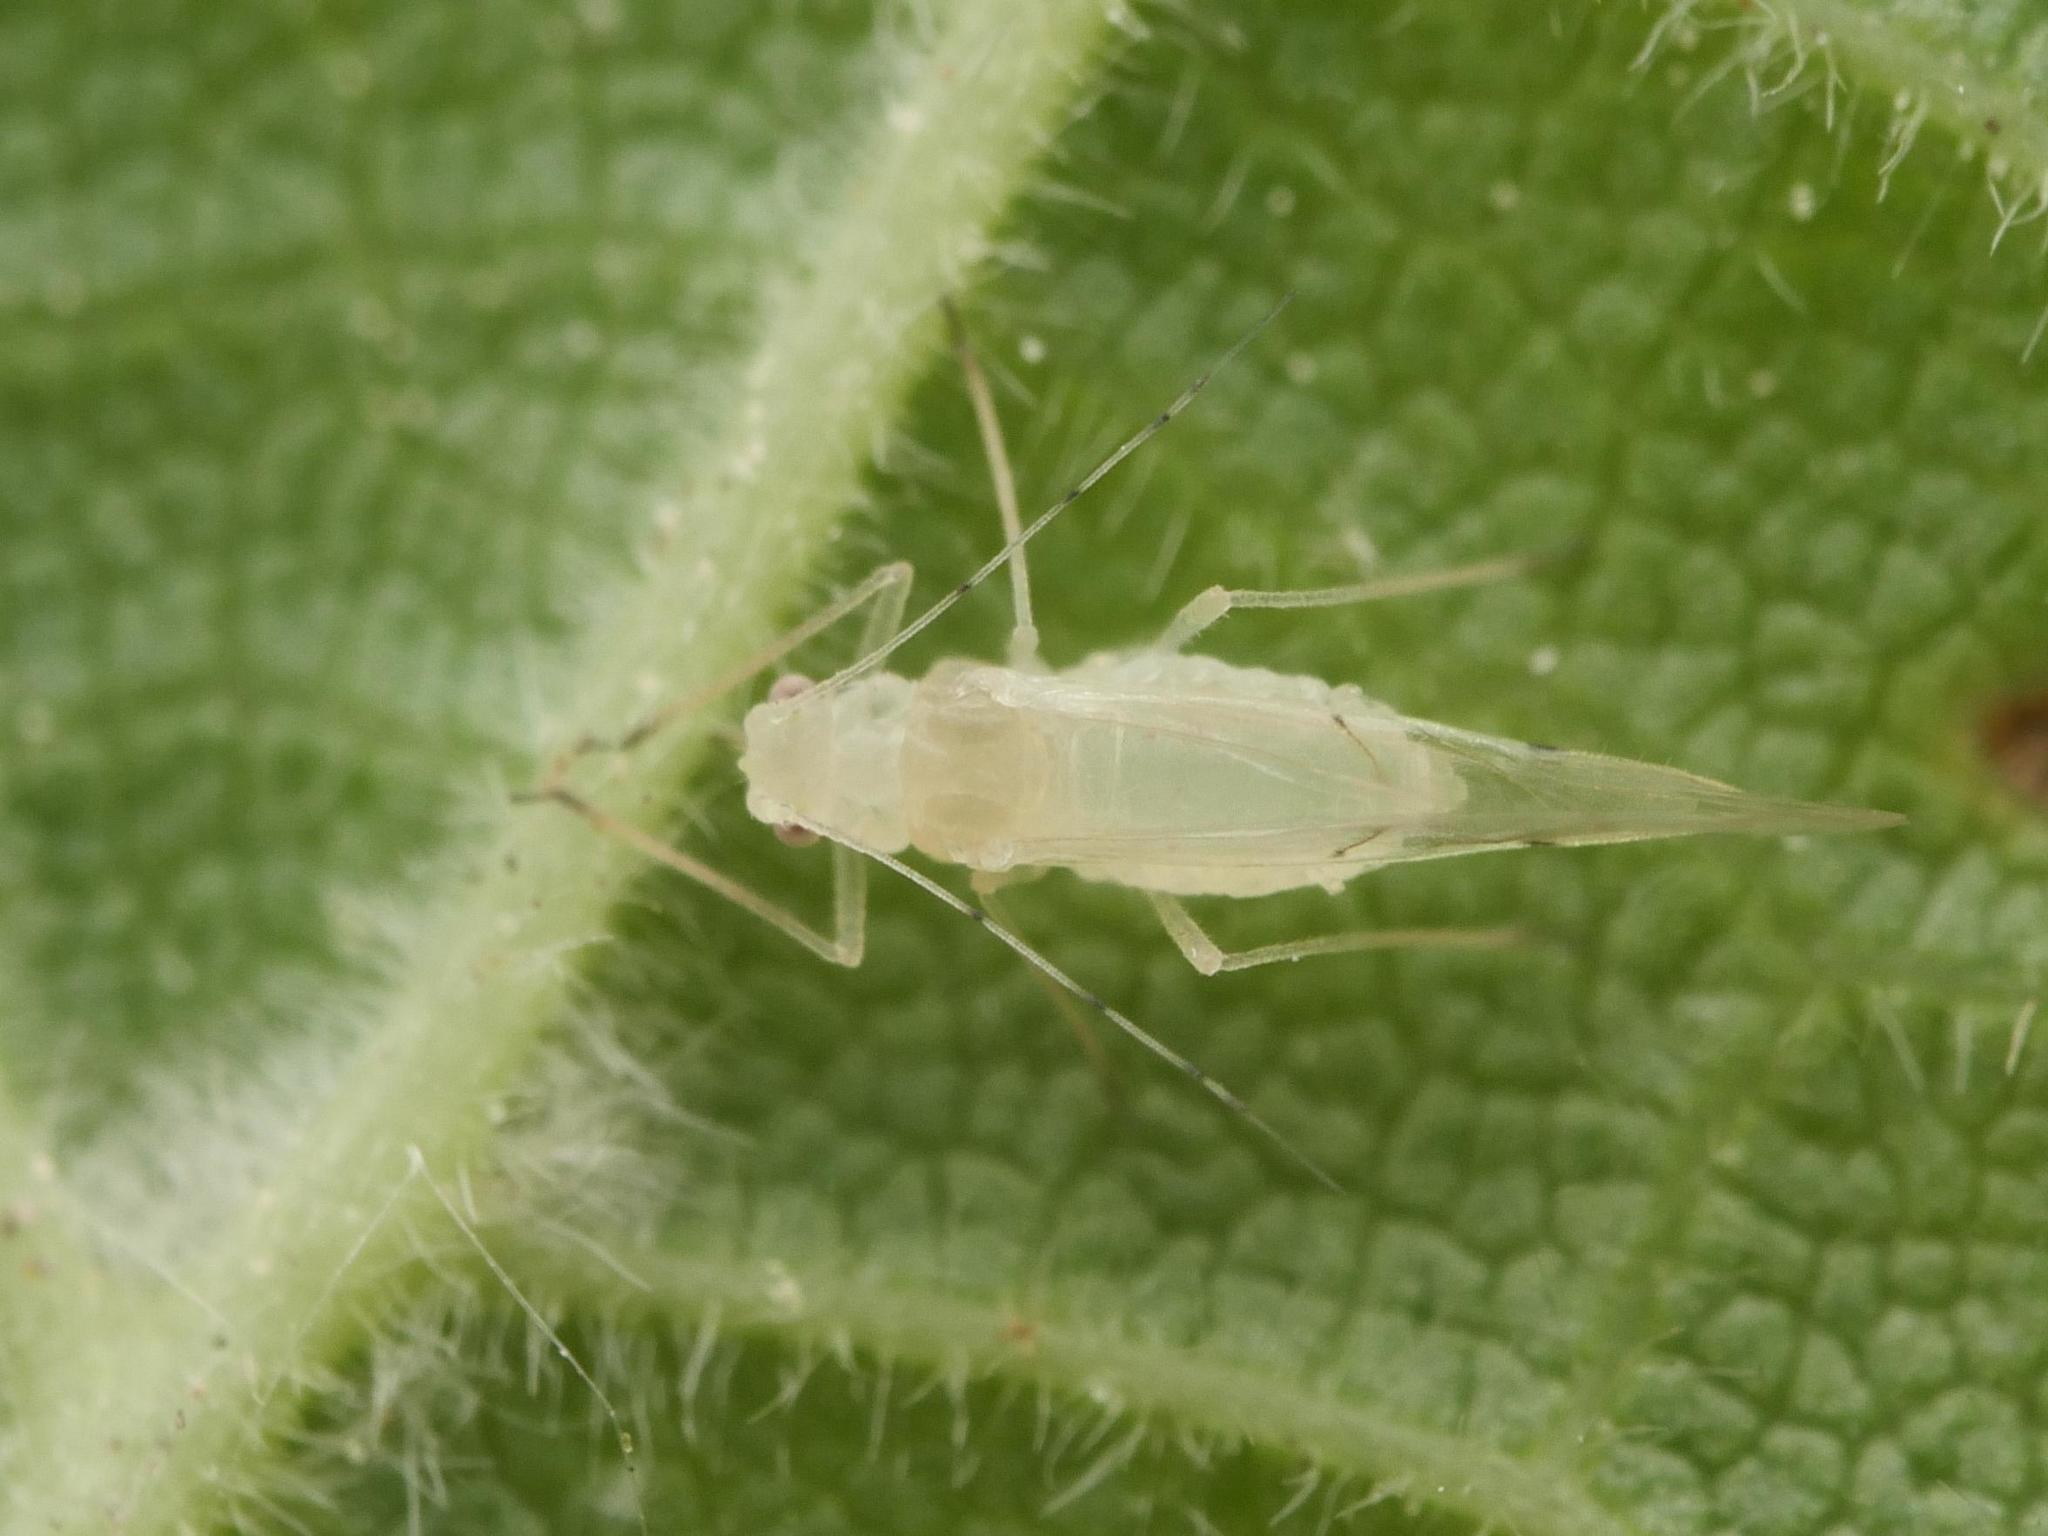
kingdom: Animalia
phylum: Arthropoda
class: Insecta
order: Hemiptera
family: Aphididae
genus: Myzocallis
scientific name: Myzocallis coryli
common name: Filbert aphid
